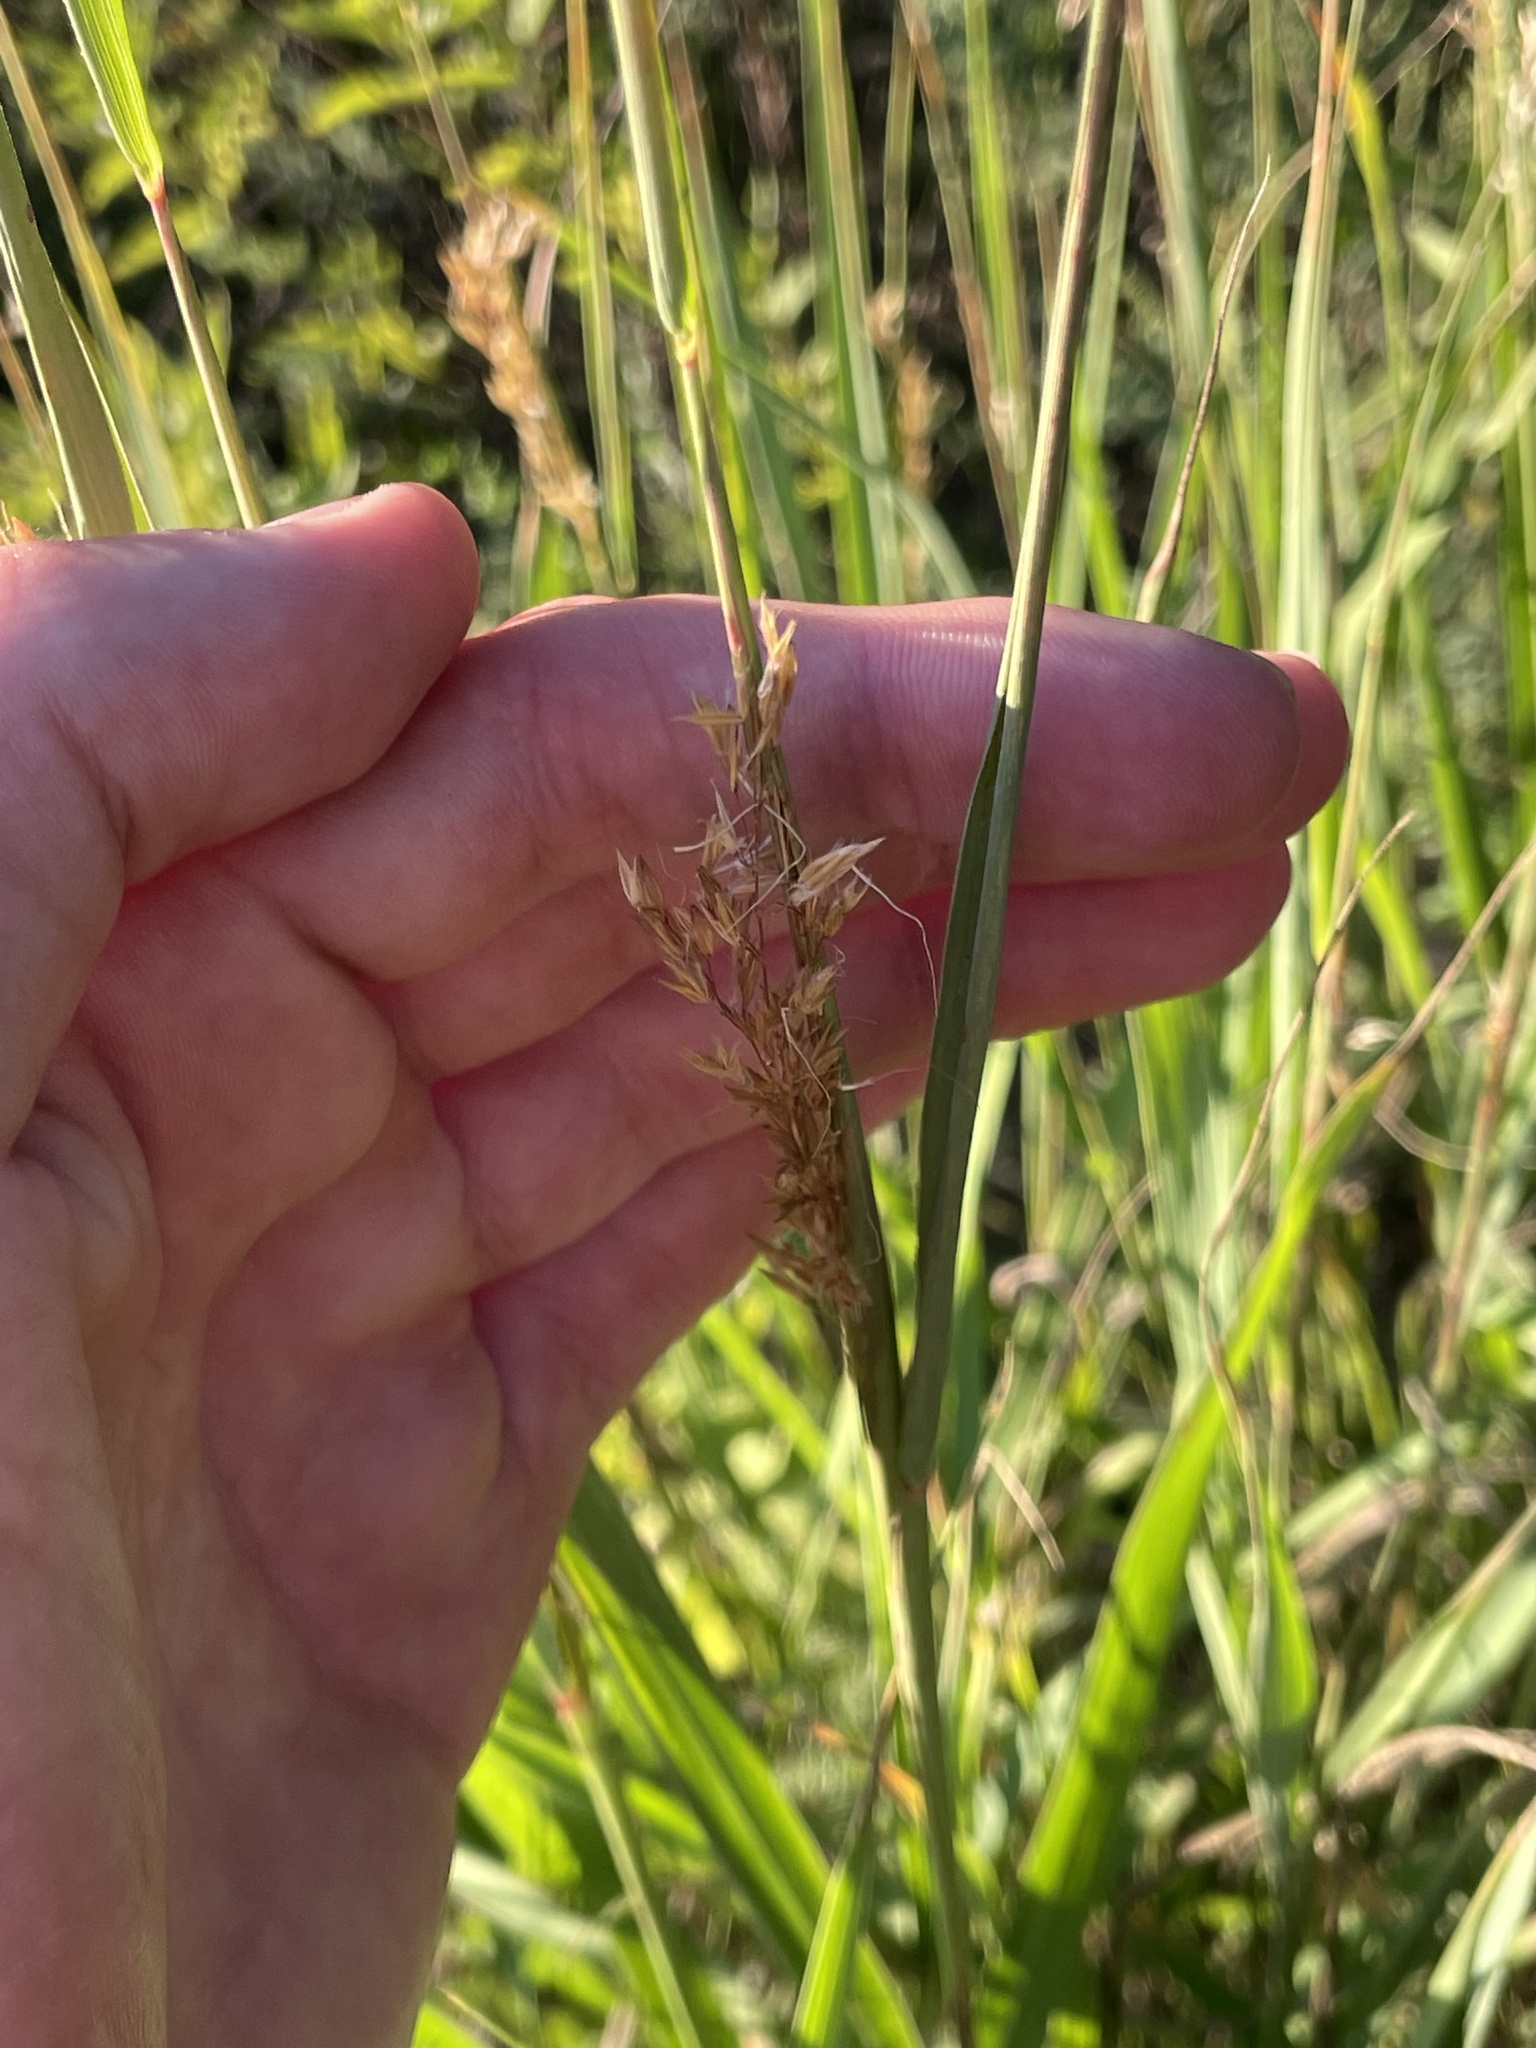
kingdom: Plantae
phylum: Tracheophyta
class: Liliopsida
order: Poales
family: Poaceae
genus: Tripsacum
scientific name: Tripsacum dactyloides
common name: Buffalo-grass
